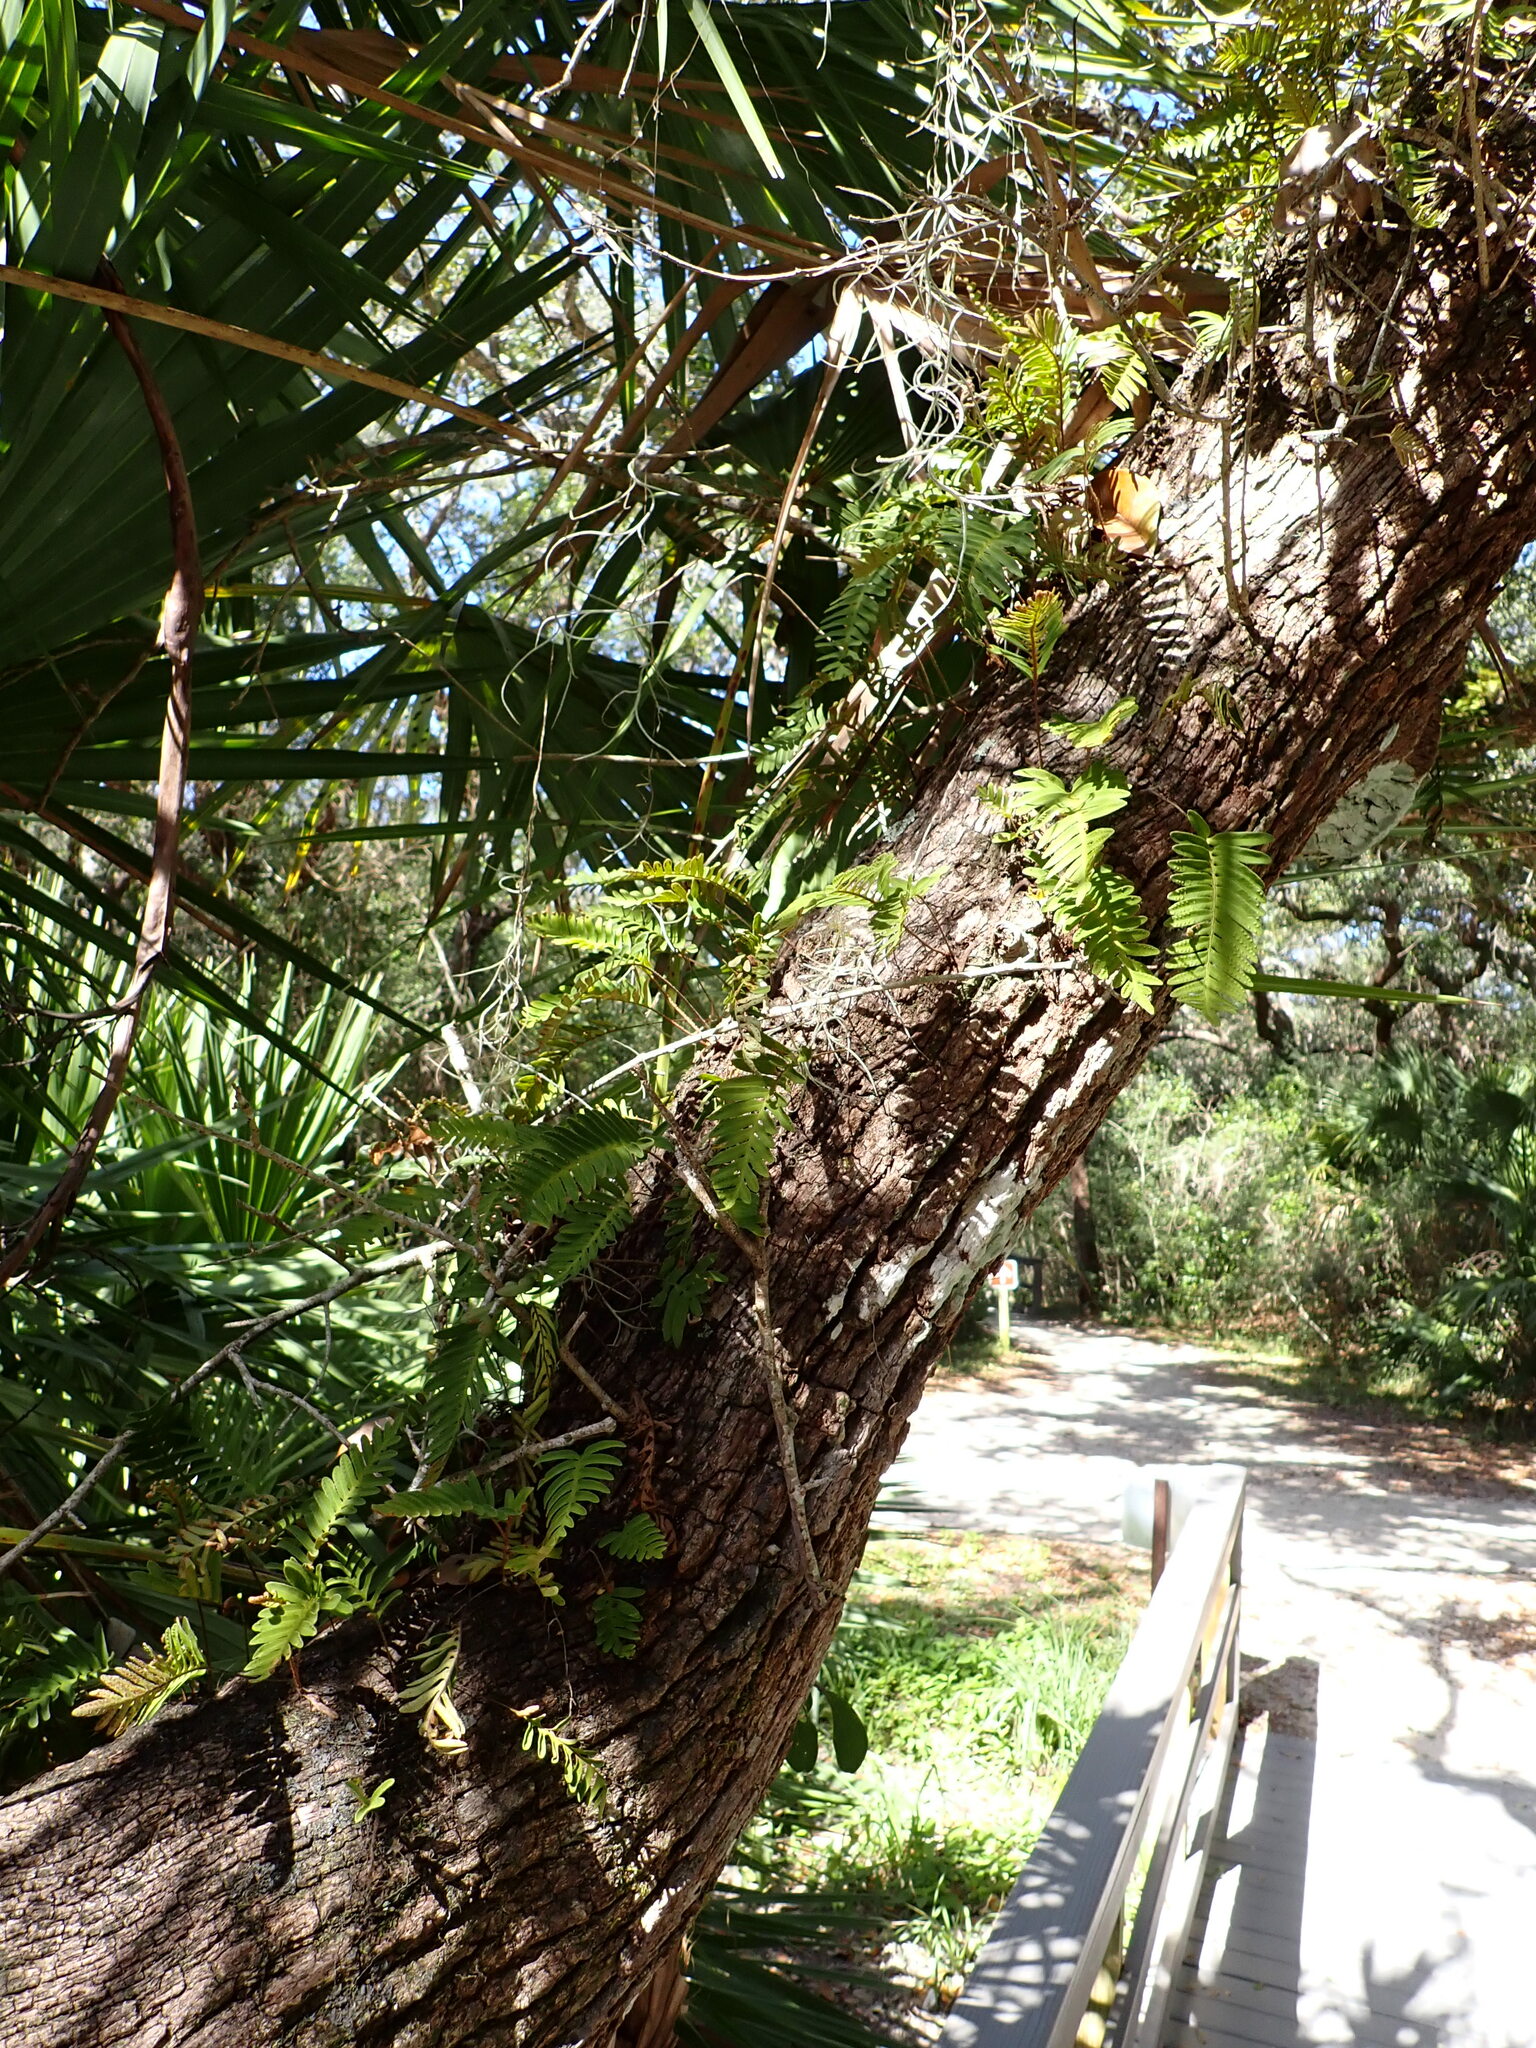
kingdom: Plantae
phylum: Tracheophyta
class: Polypodiopsida
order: Polypodiales
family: Polypodiaceae
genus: Pleopeltis
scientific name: Pleopeltis michauxiana
